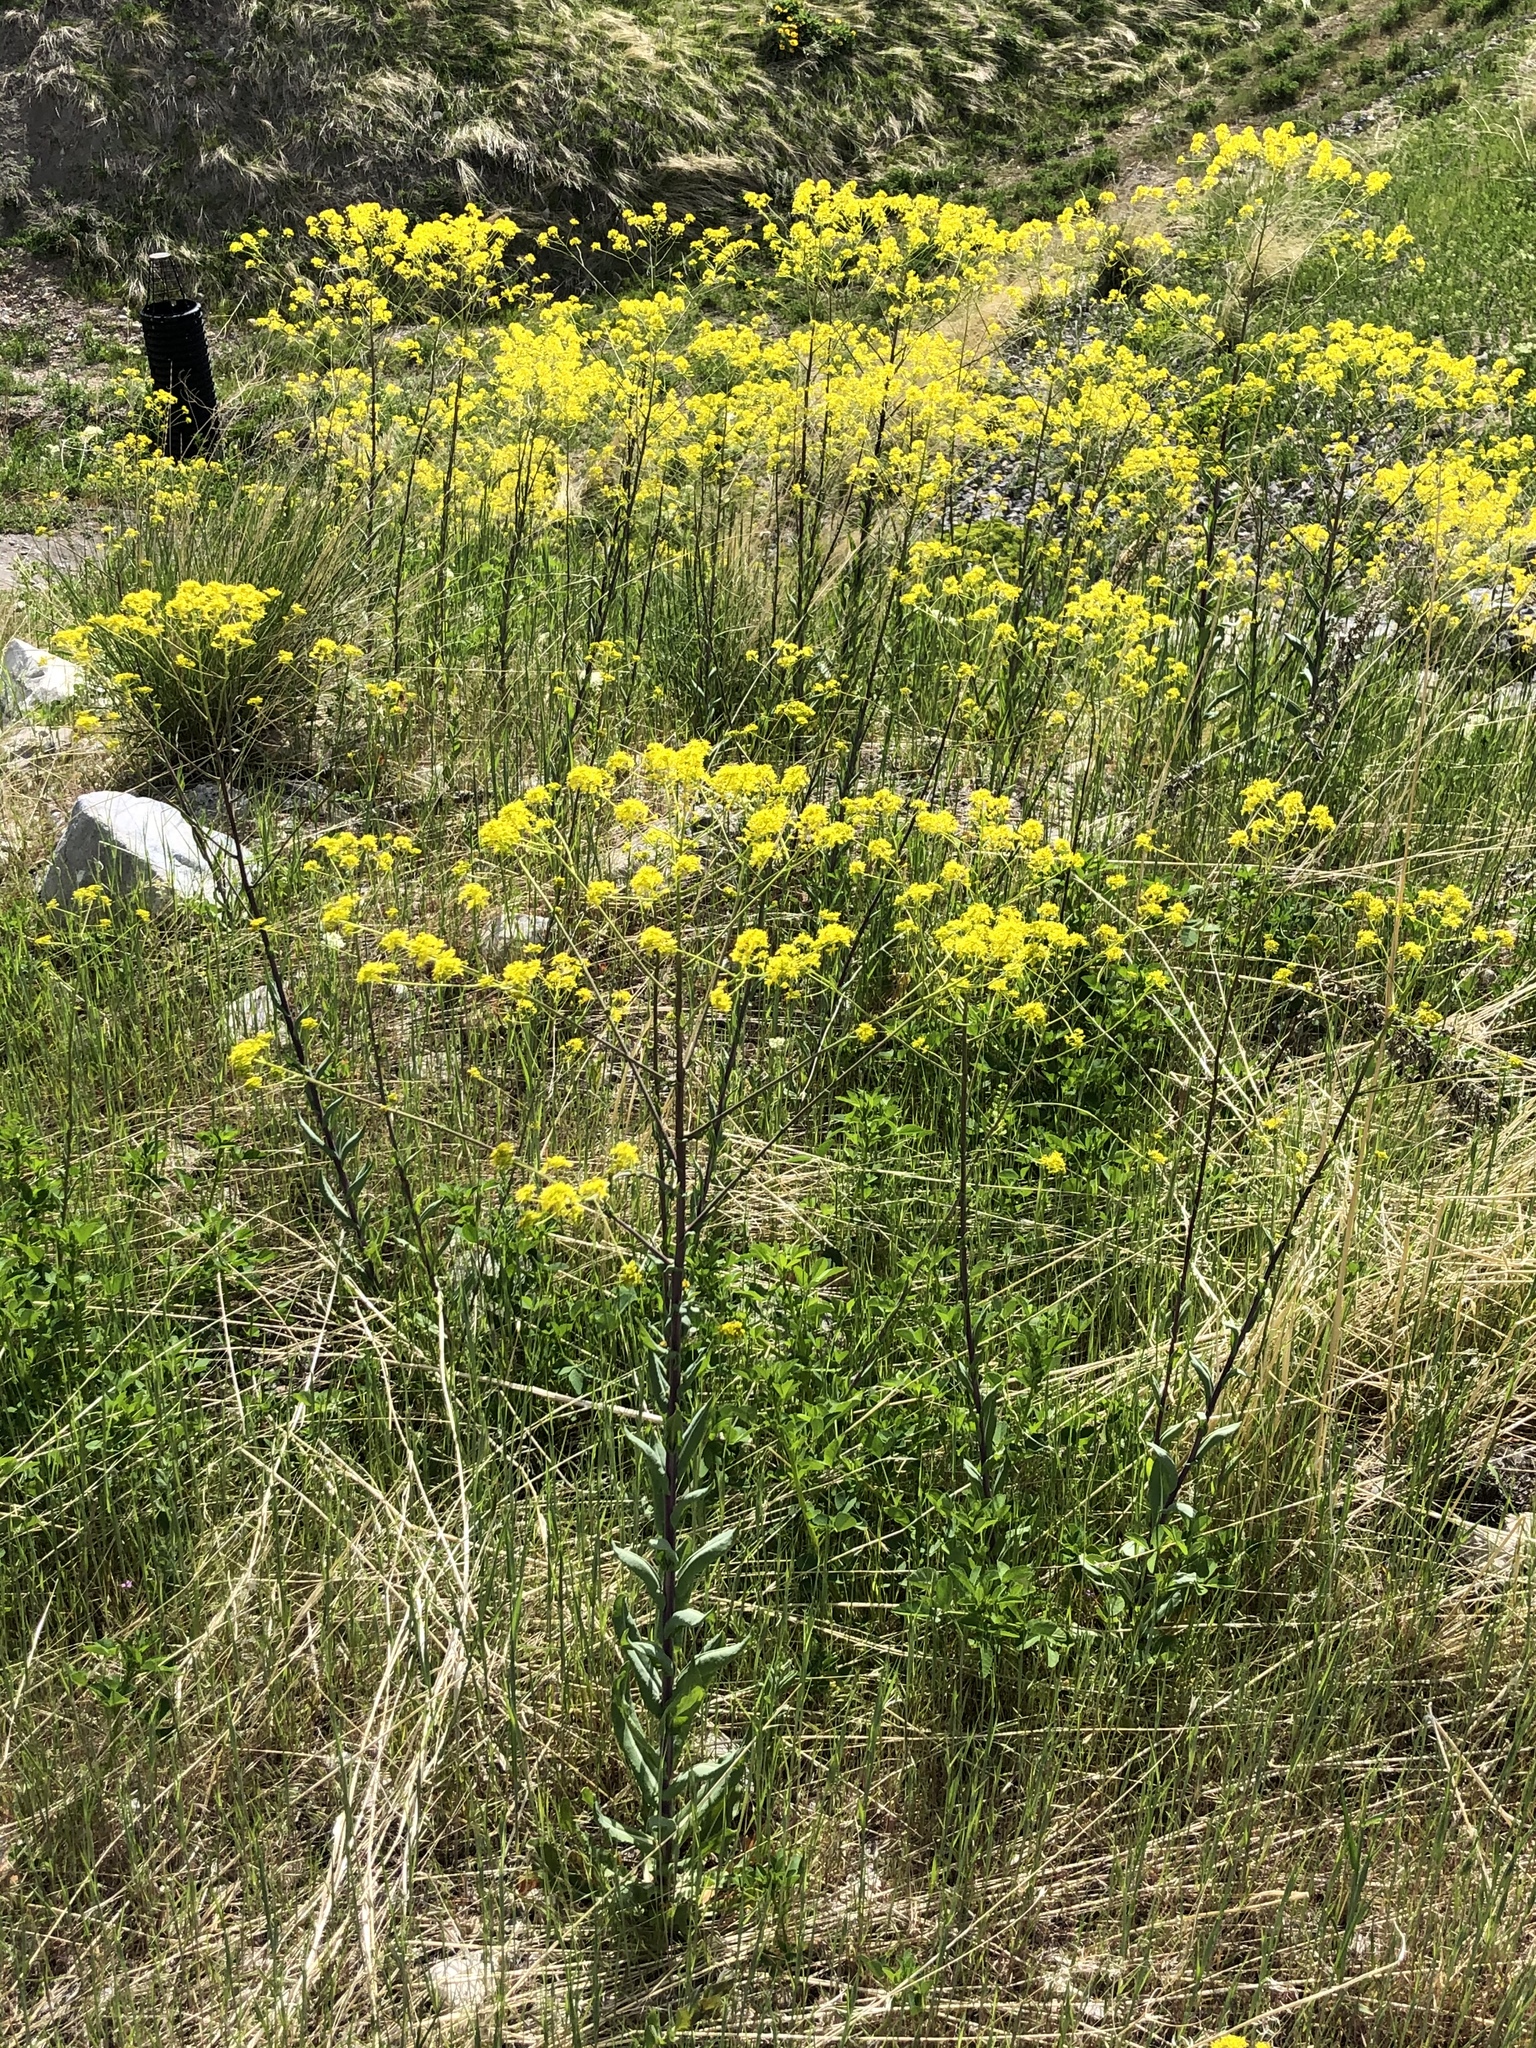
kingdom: Plantae
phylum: Tracheophyta
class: Magnoliopsida
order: Brassicales
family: Brassicaceae
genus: Isatis
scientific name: Isatis tinctoria
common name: Woad
